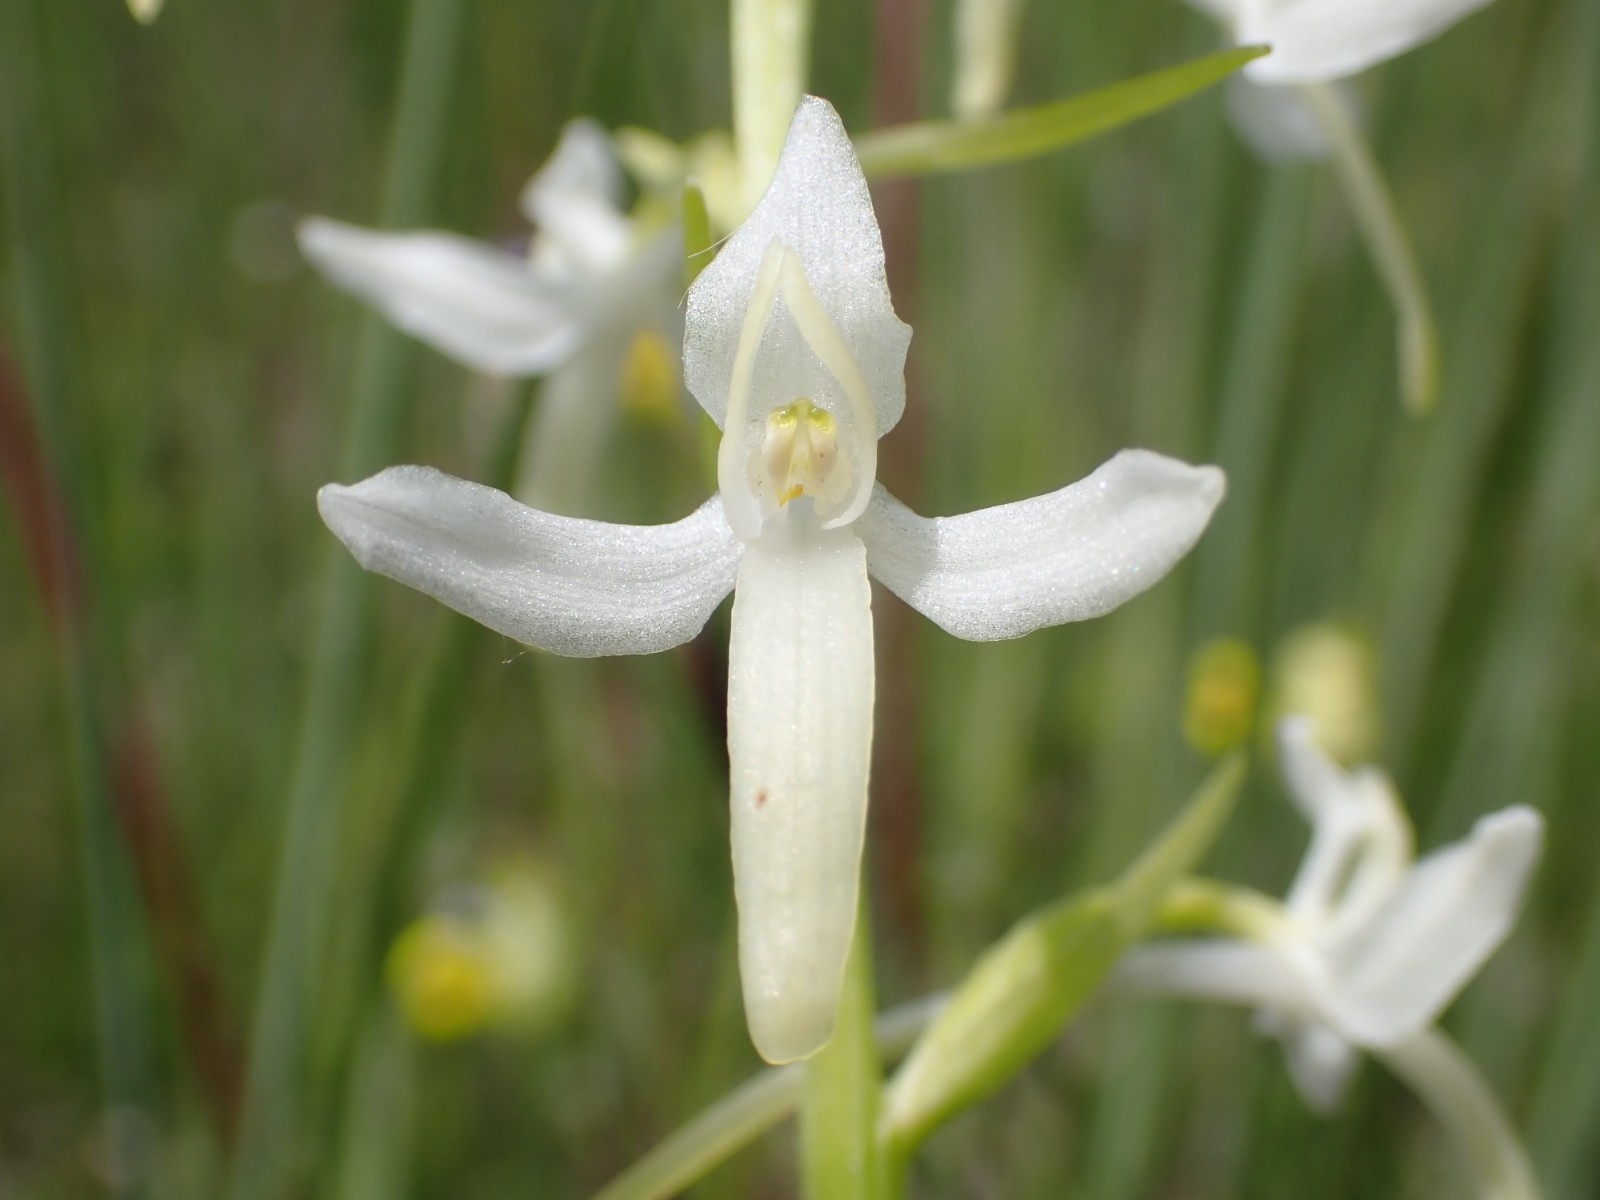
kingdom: Plantae
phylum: Tracheophyta
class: Liliopsida
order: Asparagales
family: Orchidaceae
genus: Platanthera
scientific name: Platanthera bifolia
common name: Lesser butterfly-orchid
